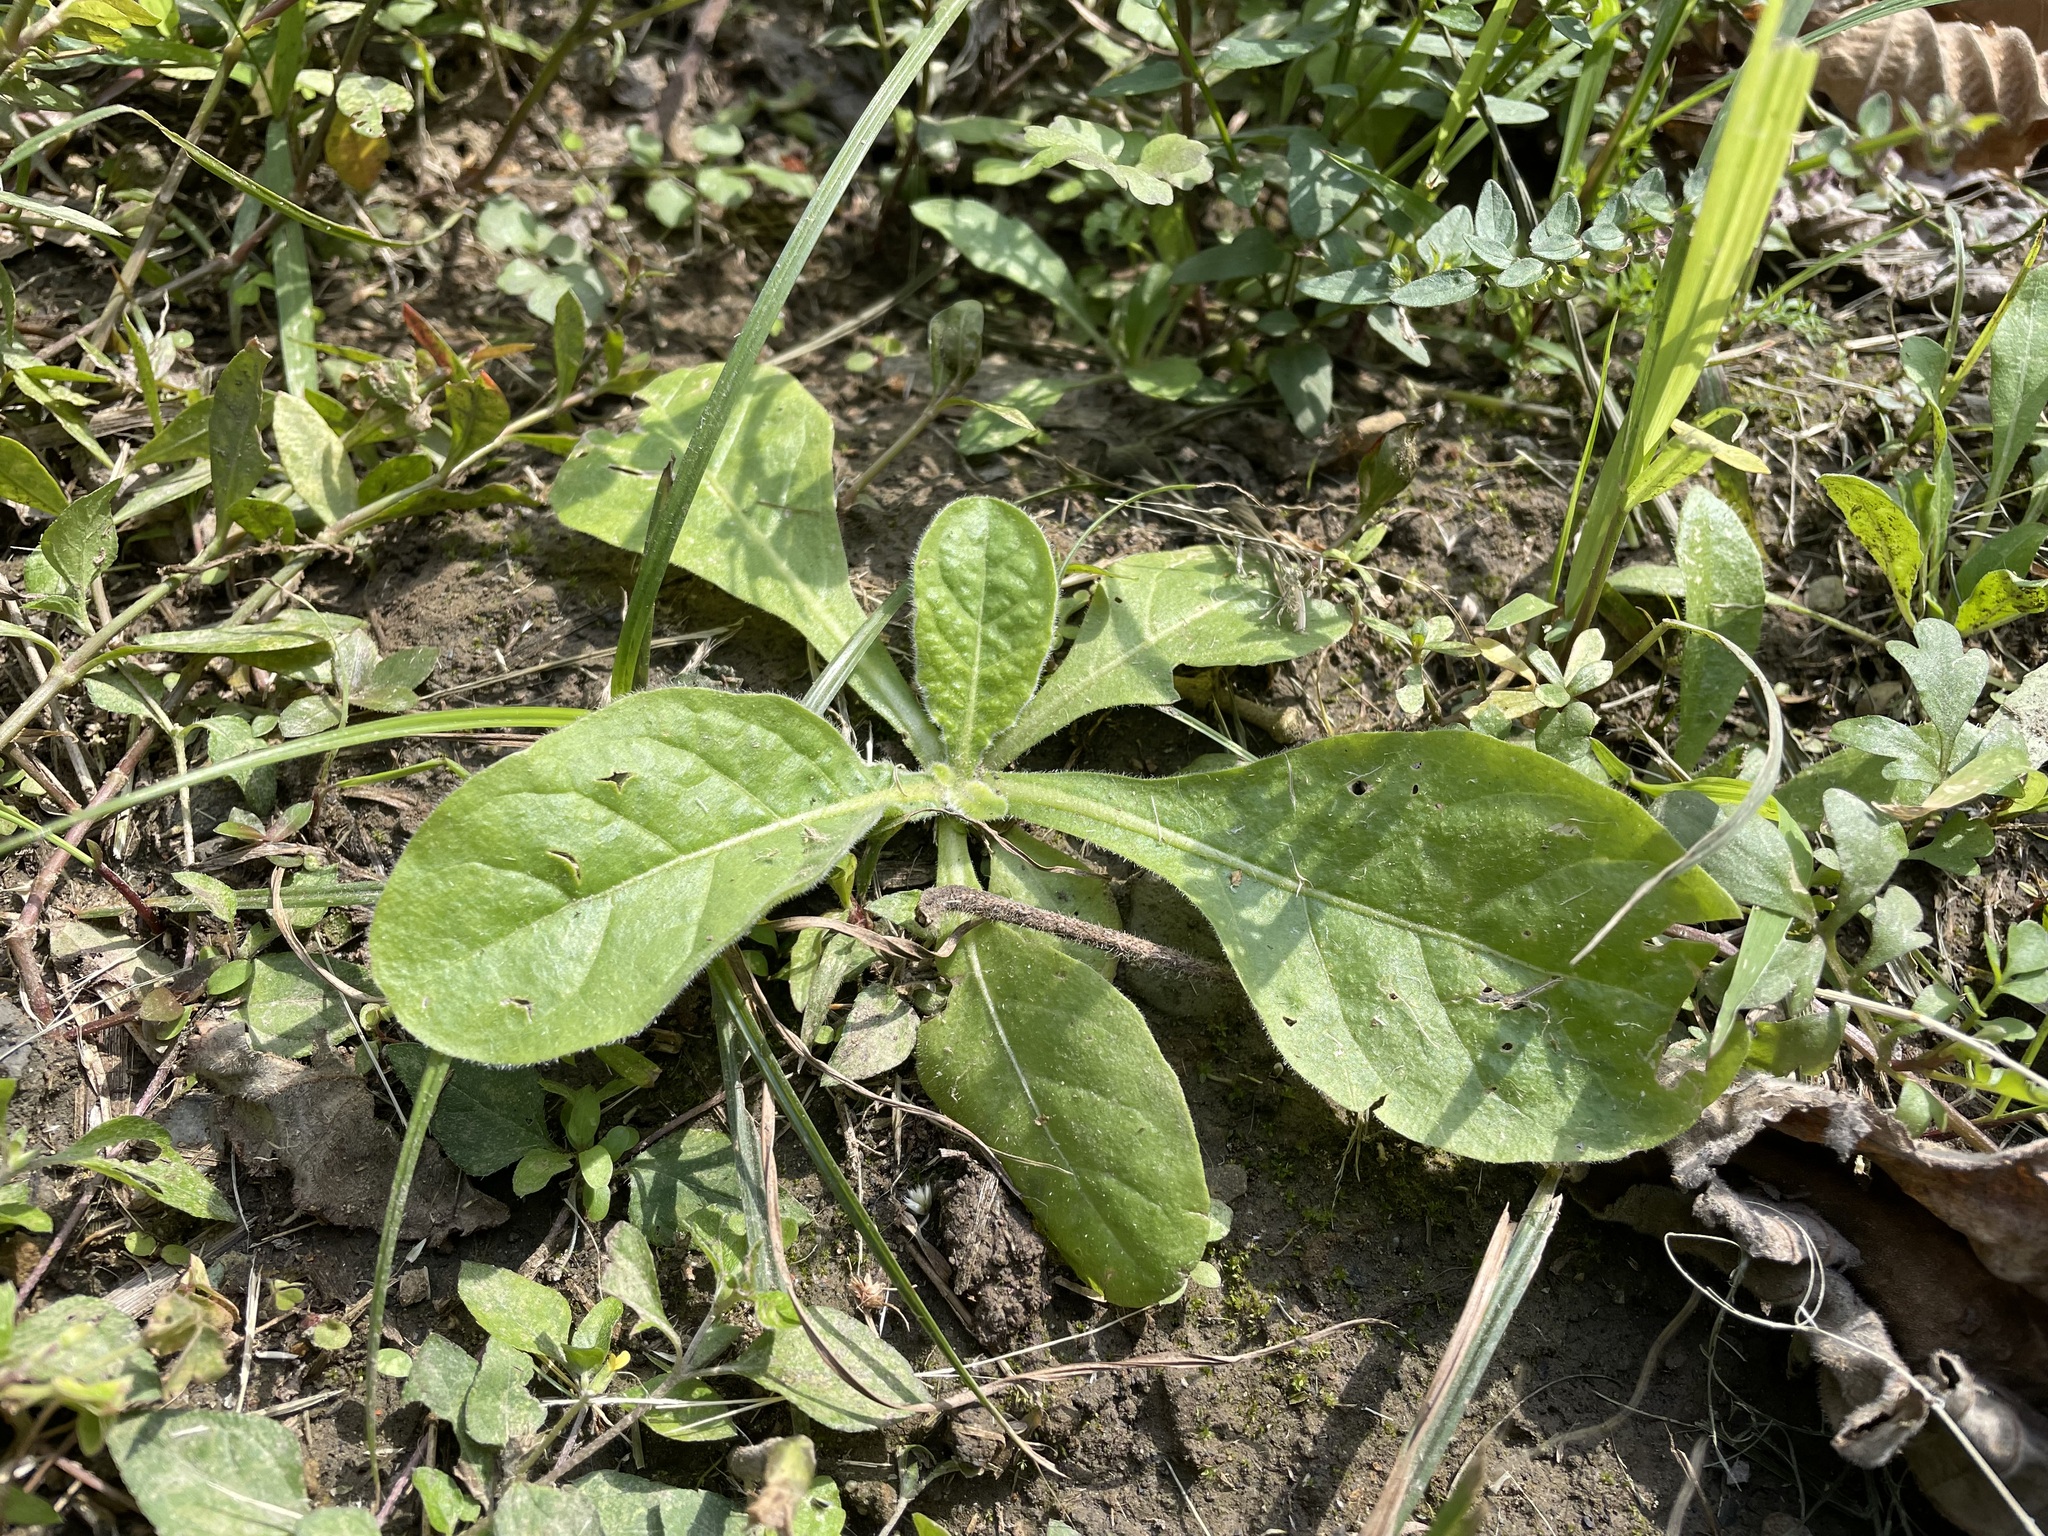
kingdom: Plantae
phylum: Tracheophyta
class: Magnoliopsida
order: Solanales
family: Solanaceae
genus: Nicotiana
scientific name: Nicotiana plumbaginifolia
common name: Tex-mex tobacco
